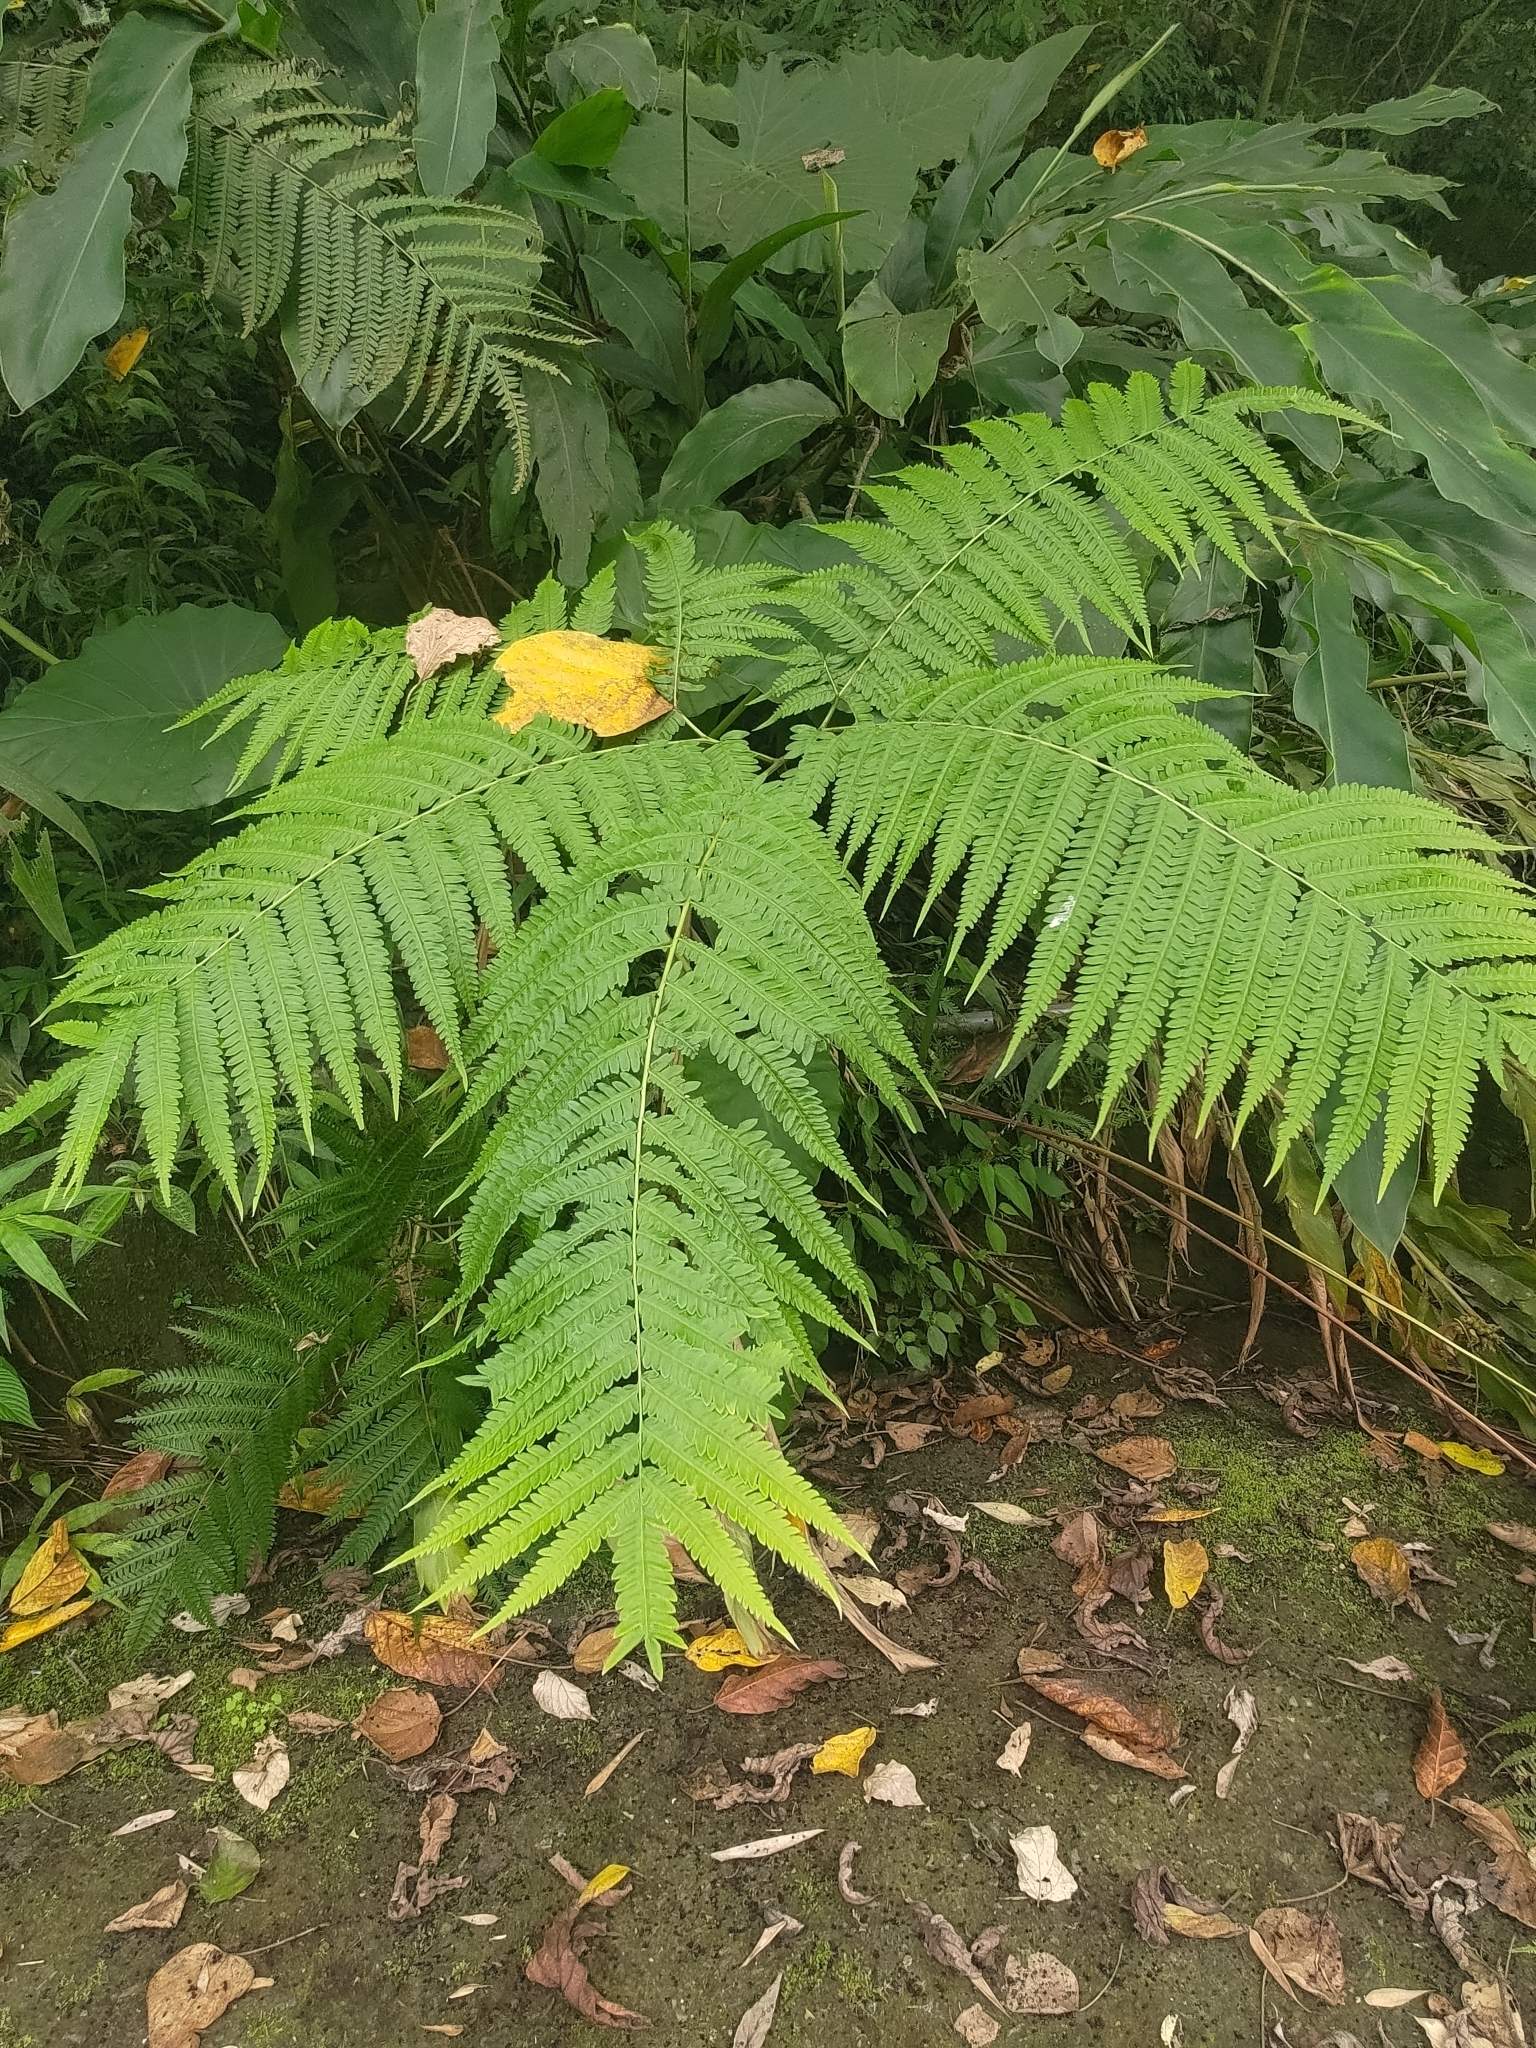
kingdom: Plantae
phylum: Tracheophyta
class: Polypodiopsida
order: Polypodiales
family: Pteridaceae
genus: Pteris
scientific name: Pteris wallichiana
